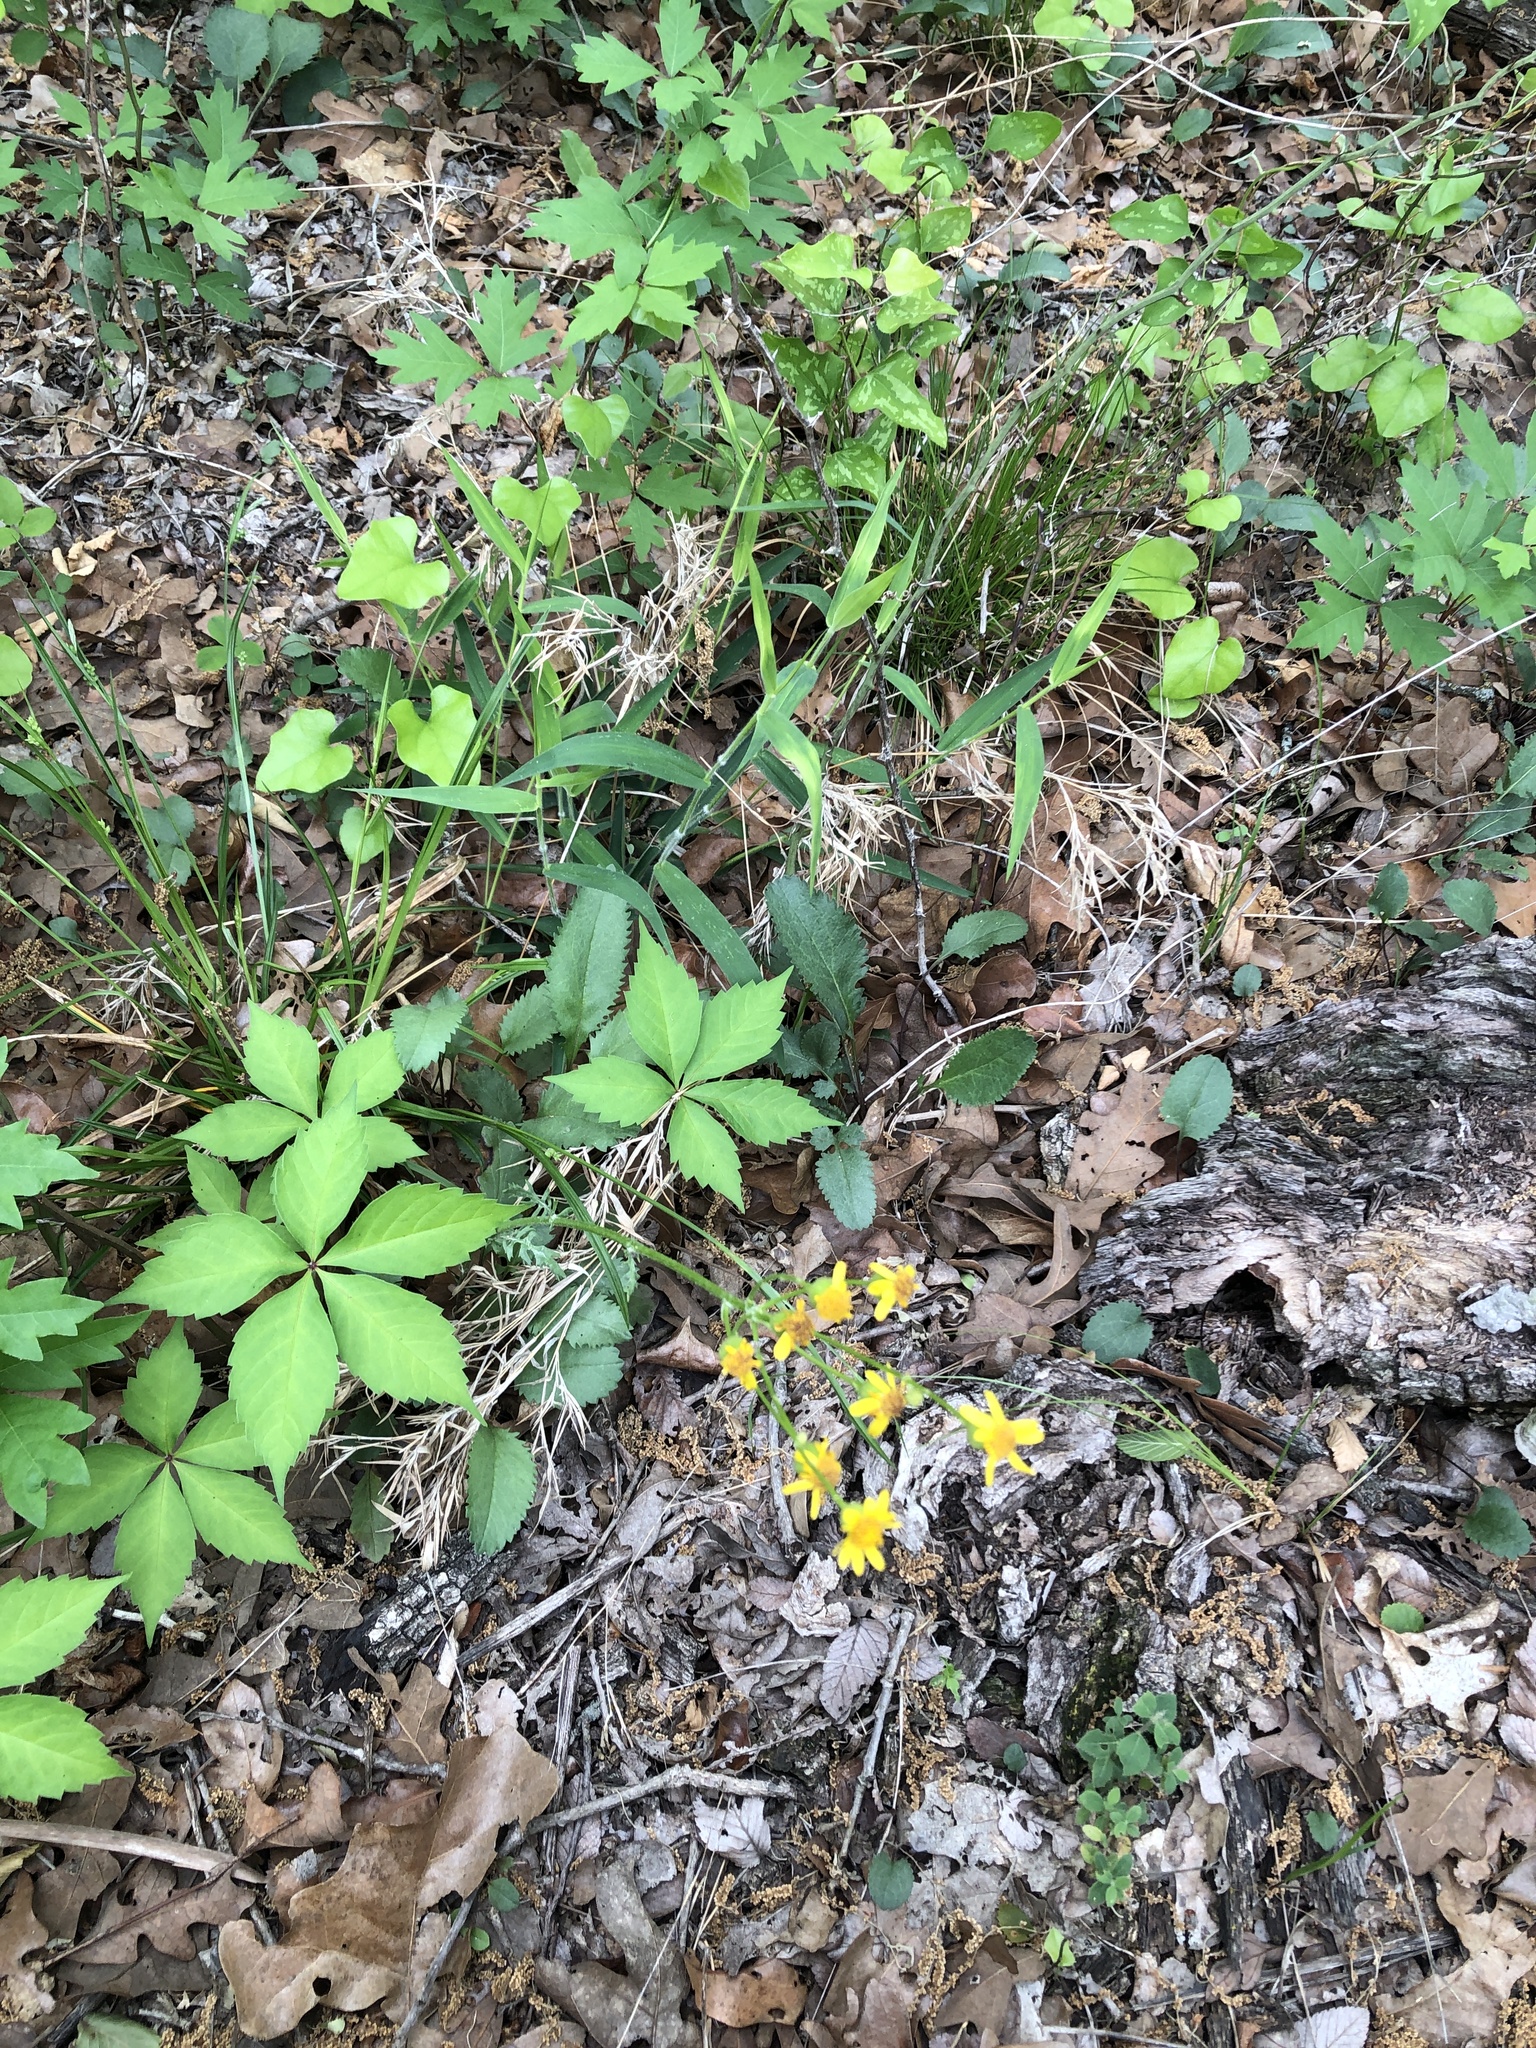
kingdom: Plantae
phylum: Tracheophyta
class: Magnoliopsida
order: Asterales
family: Asteraceae
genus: Packera
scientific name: Packera plattensis
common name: Prairie groundsel
